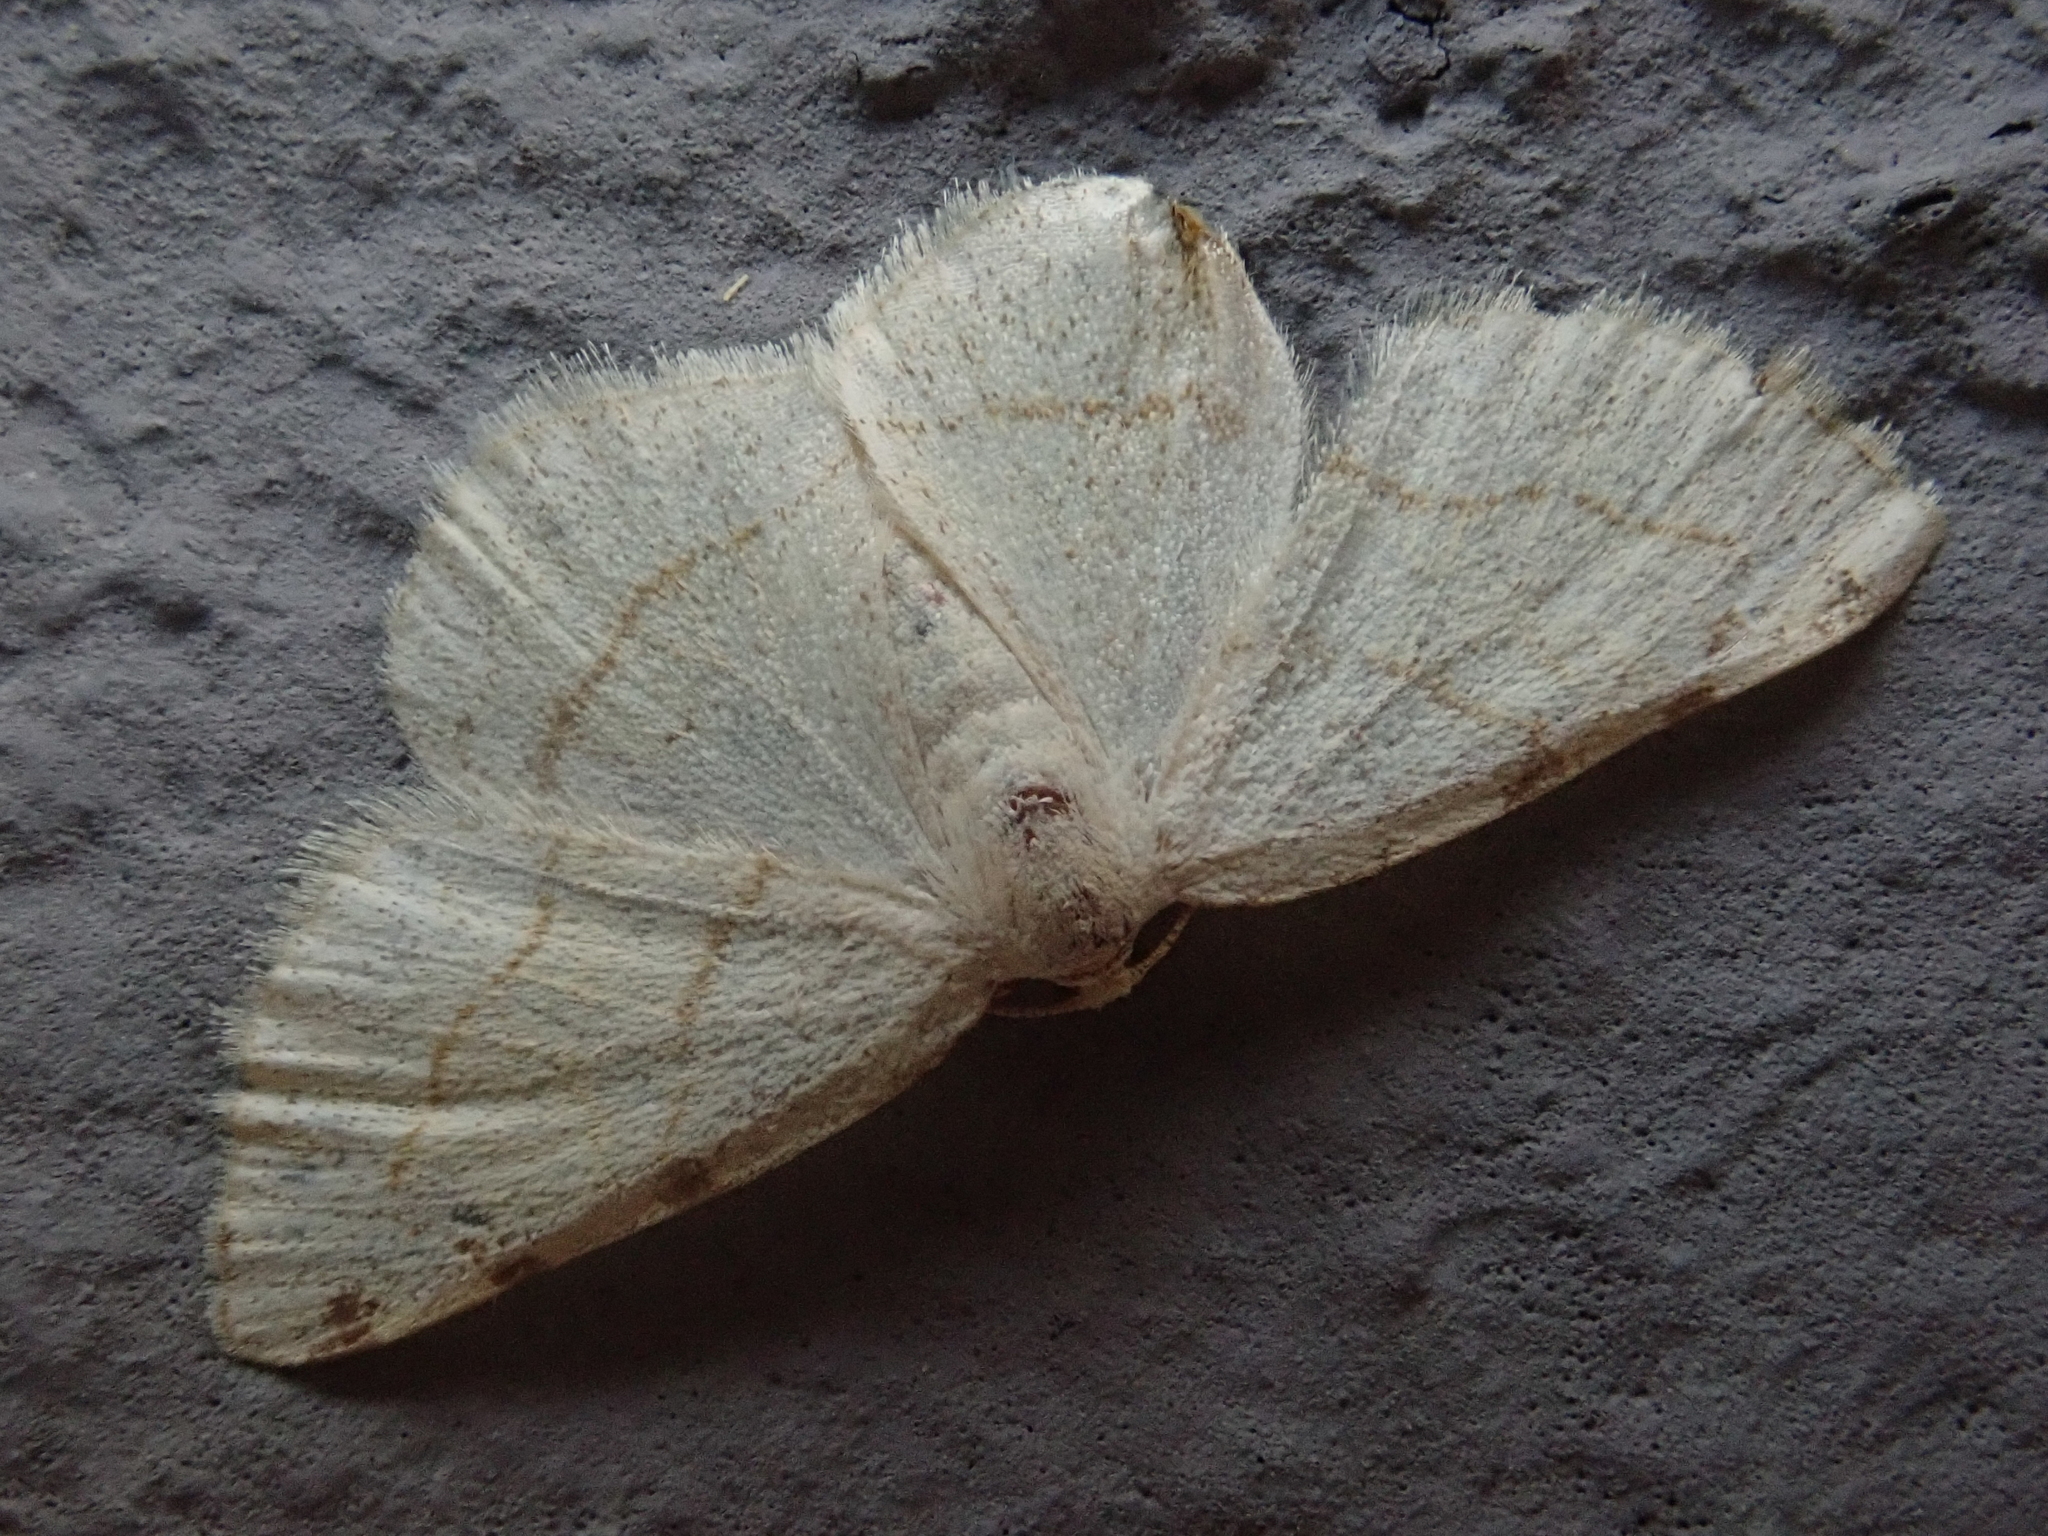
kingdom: Animalia
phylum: Arthropoda
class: Insecta
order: Lepidoptera
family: Geometridae
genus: Stegania
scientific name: Stegania trimaculata
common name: Dorset cream wave
